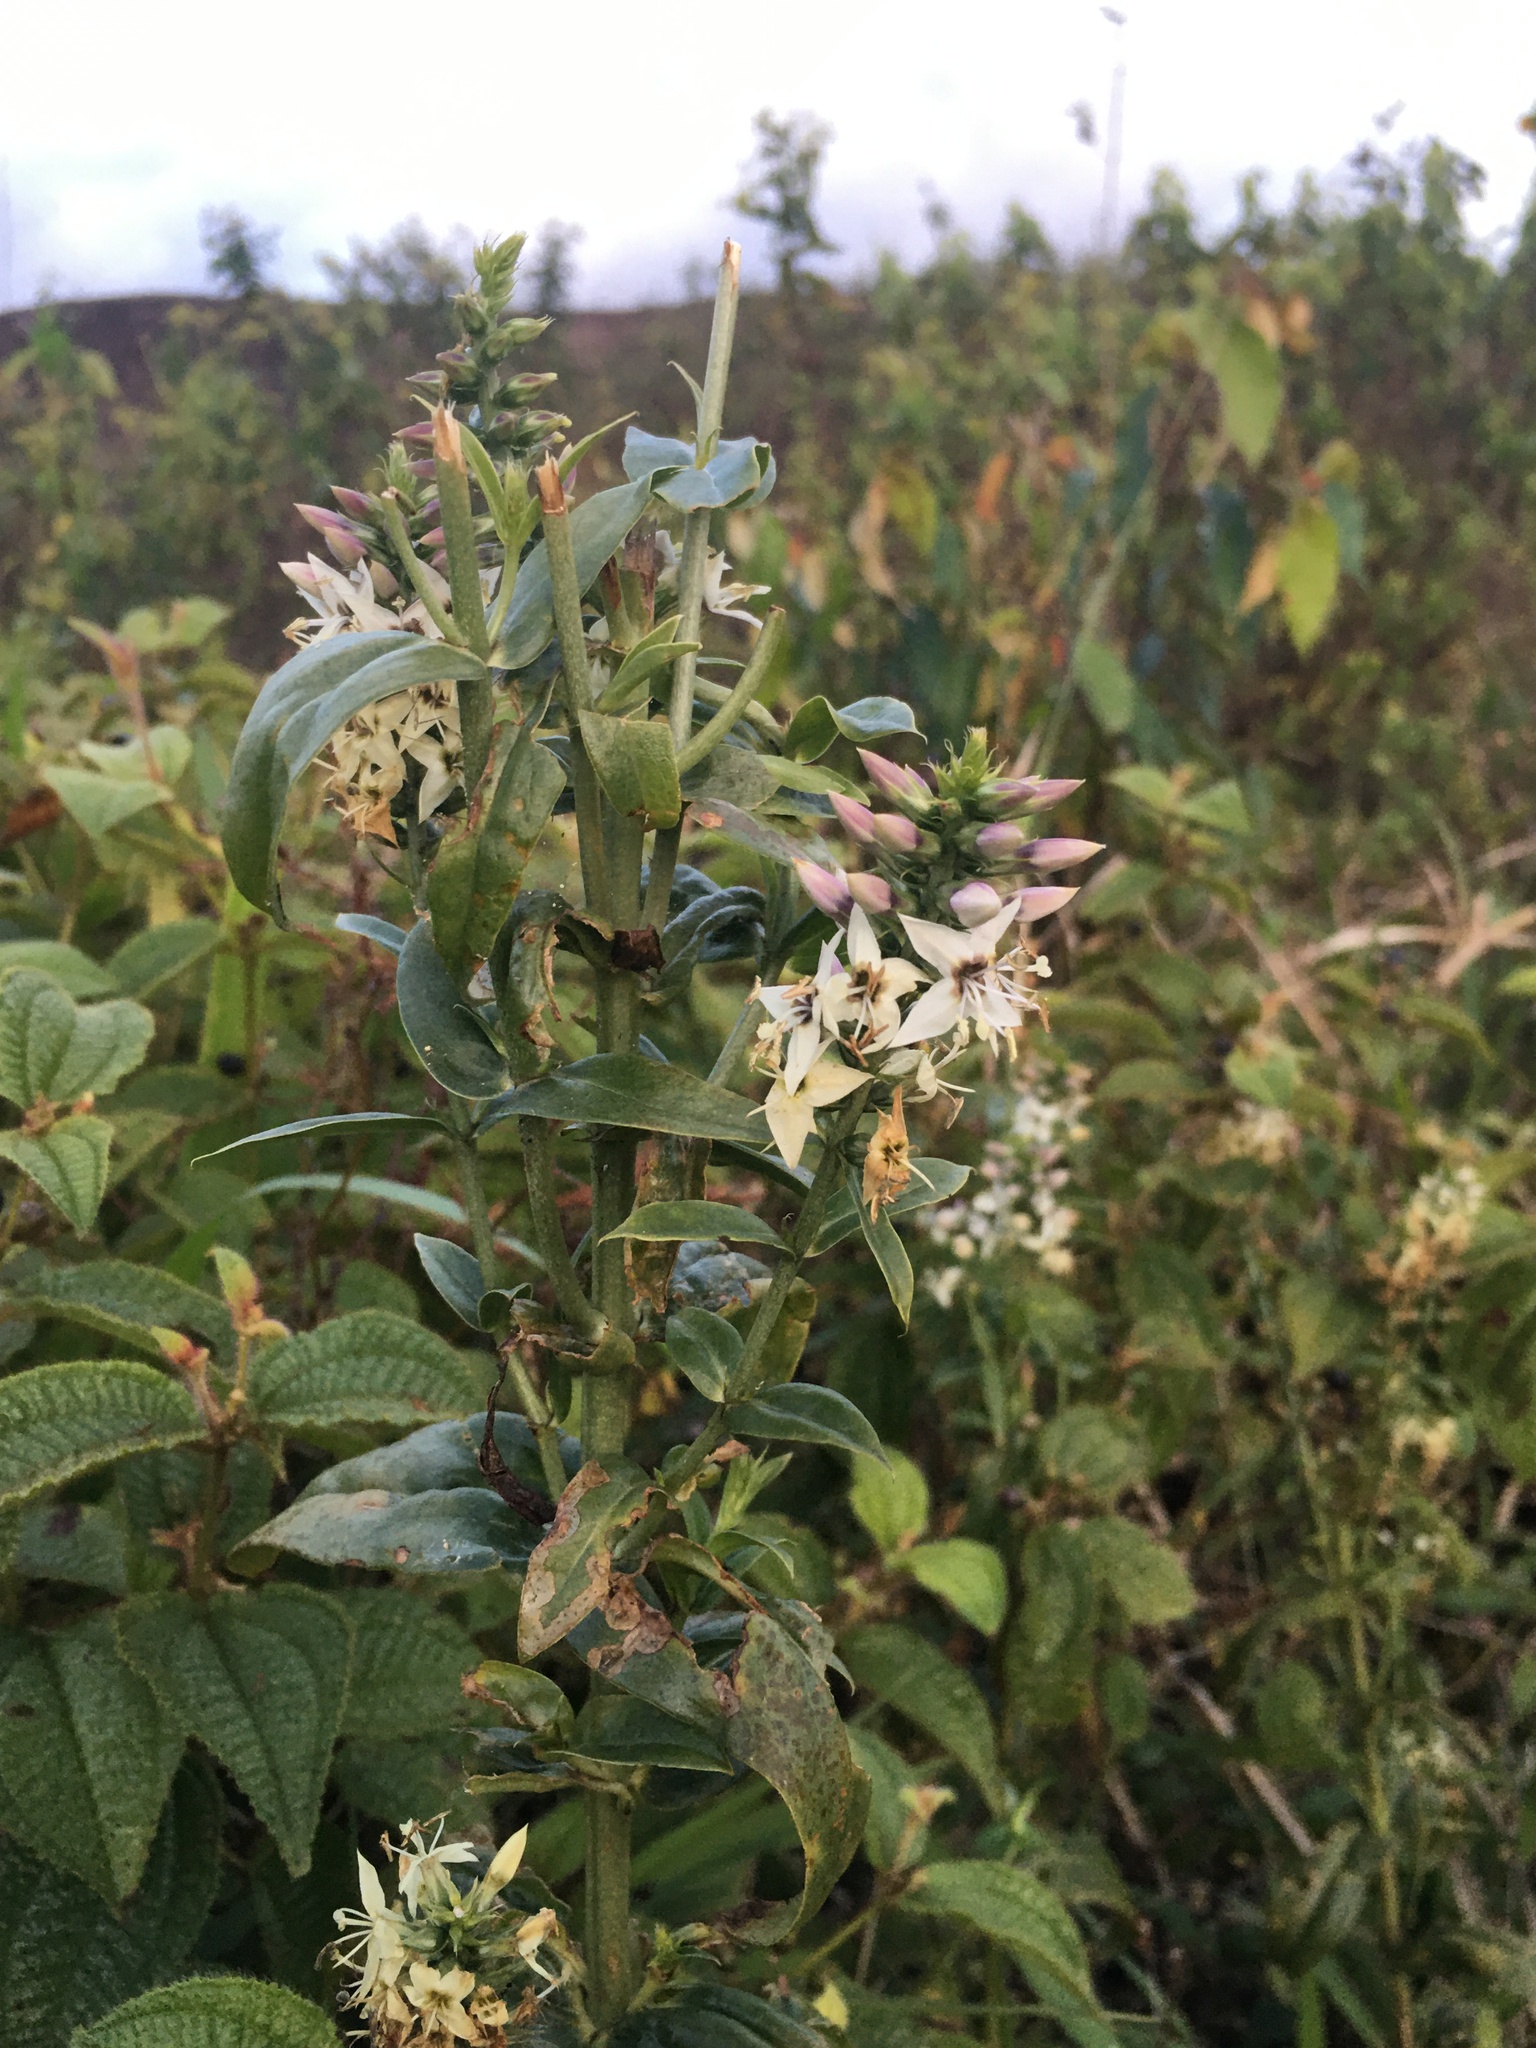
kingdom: Plantae
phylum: Tracheophyta
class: Magnoliopsida
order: Gentianales
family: Gentianaceae
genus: Coutoubea
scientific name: Coutoubea spicata
